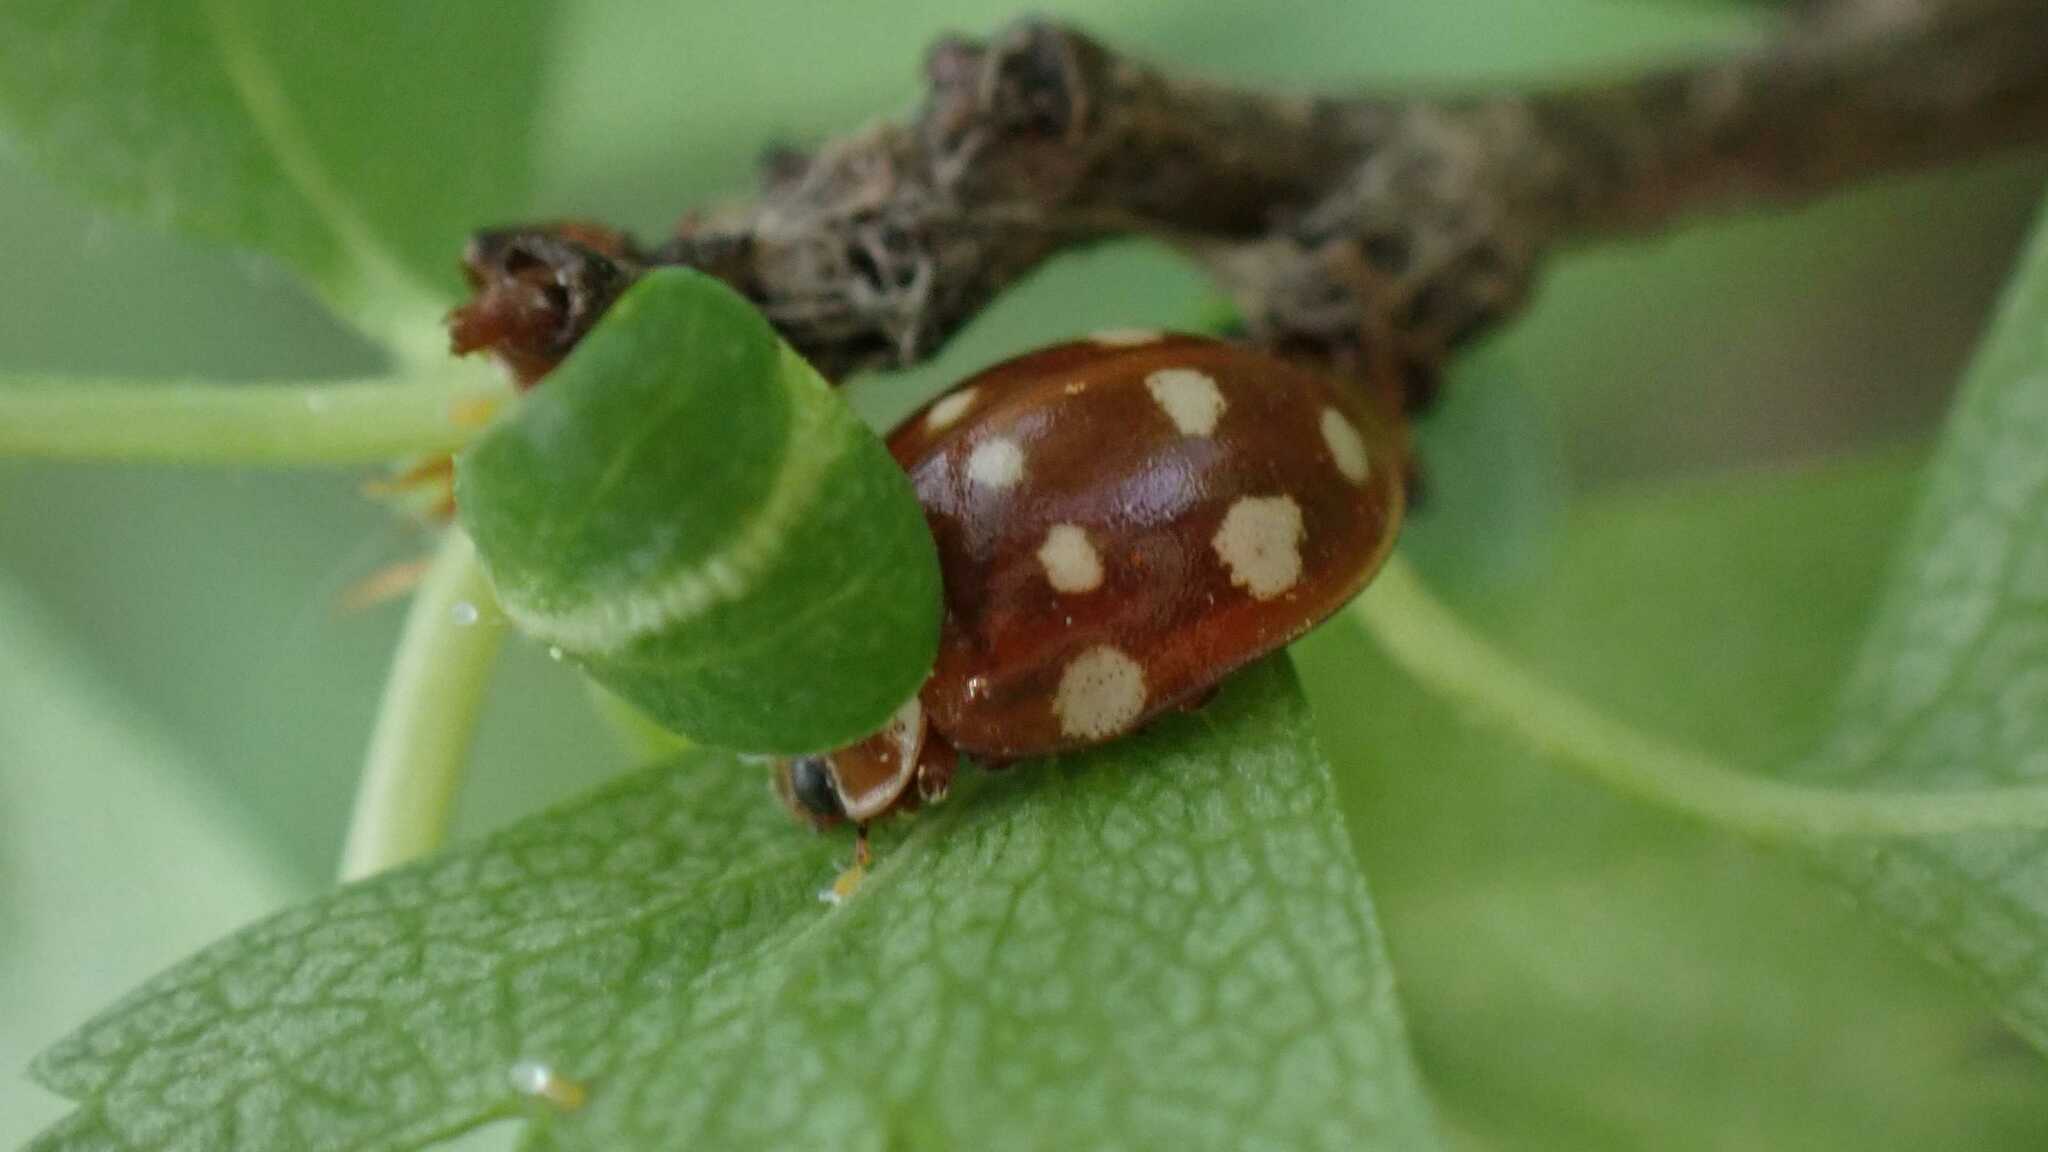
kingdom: Animalia
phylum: Arthropoda
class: Insecta
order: Coleoptera
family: Coccinellidae
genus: Calvia
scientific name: Calvia quatuordecimguttata
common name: Cream-spot ladybird
